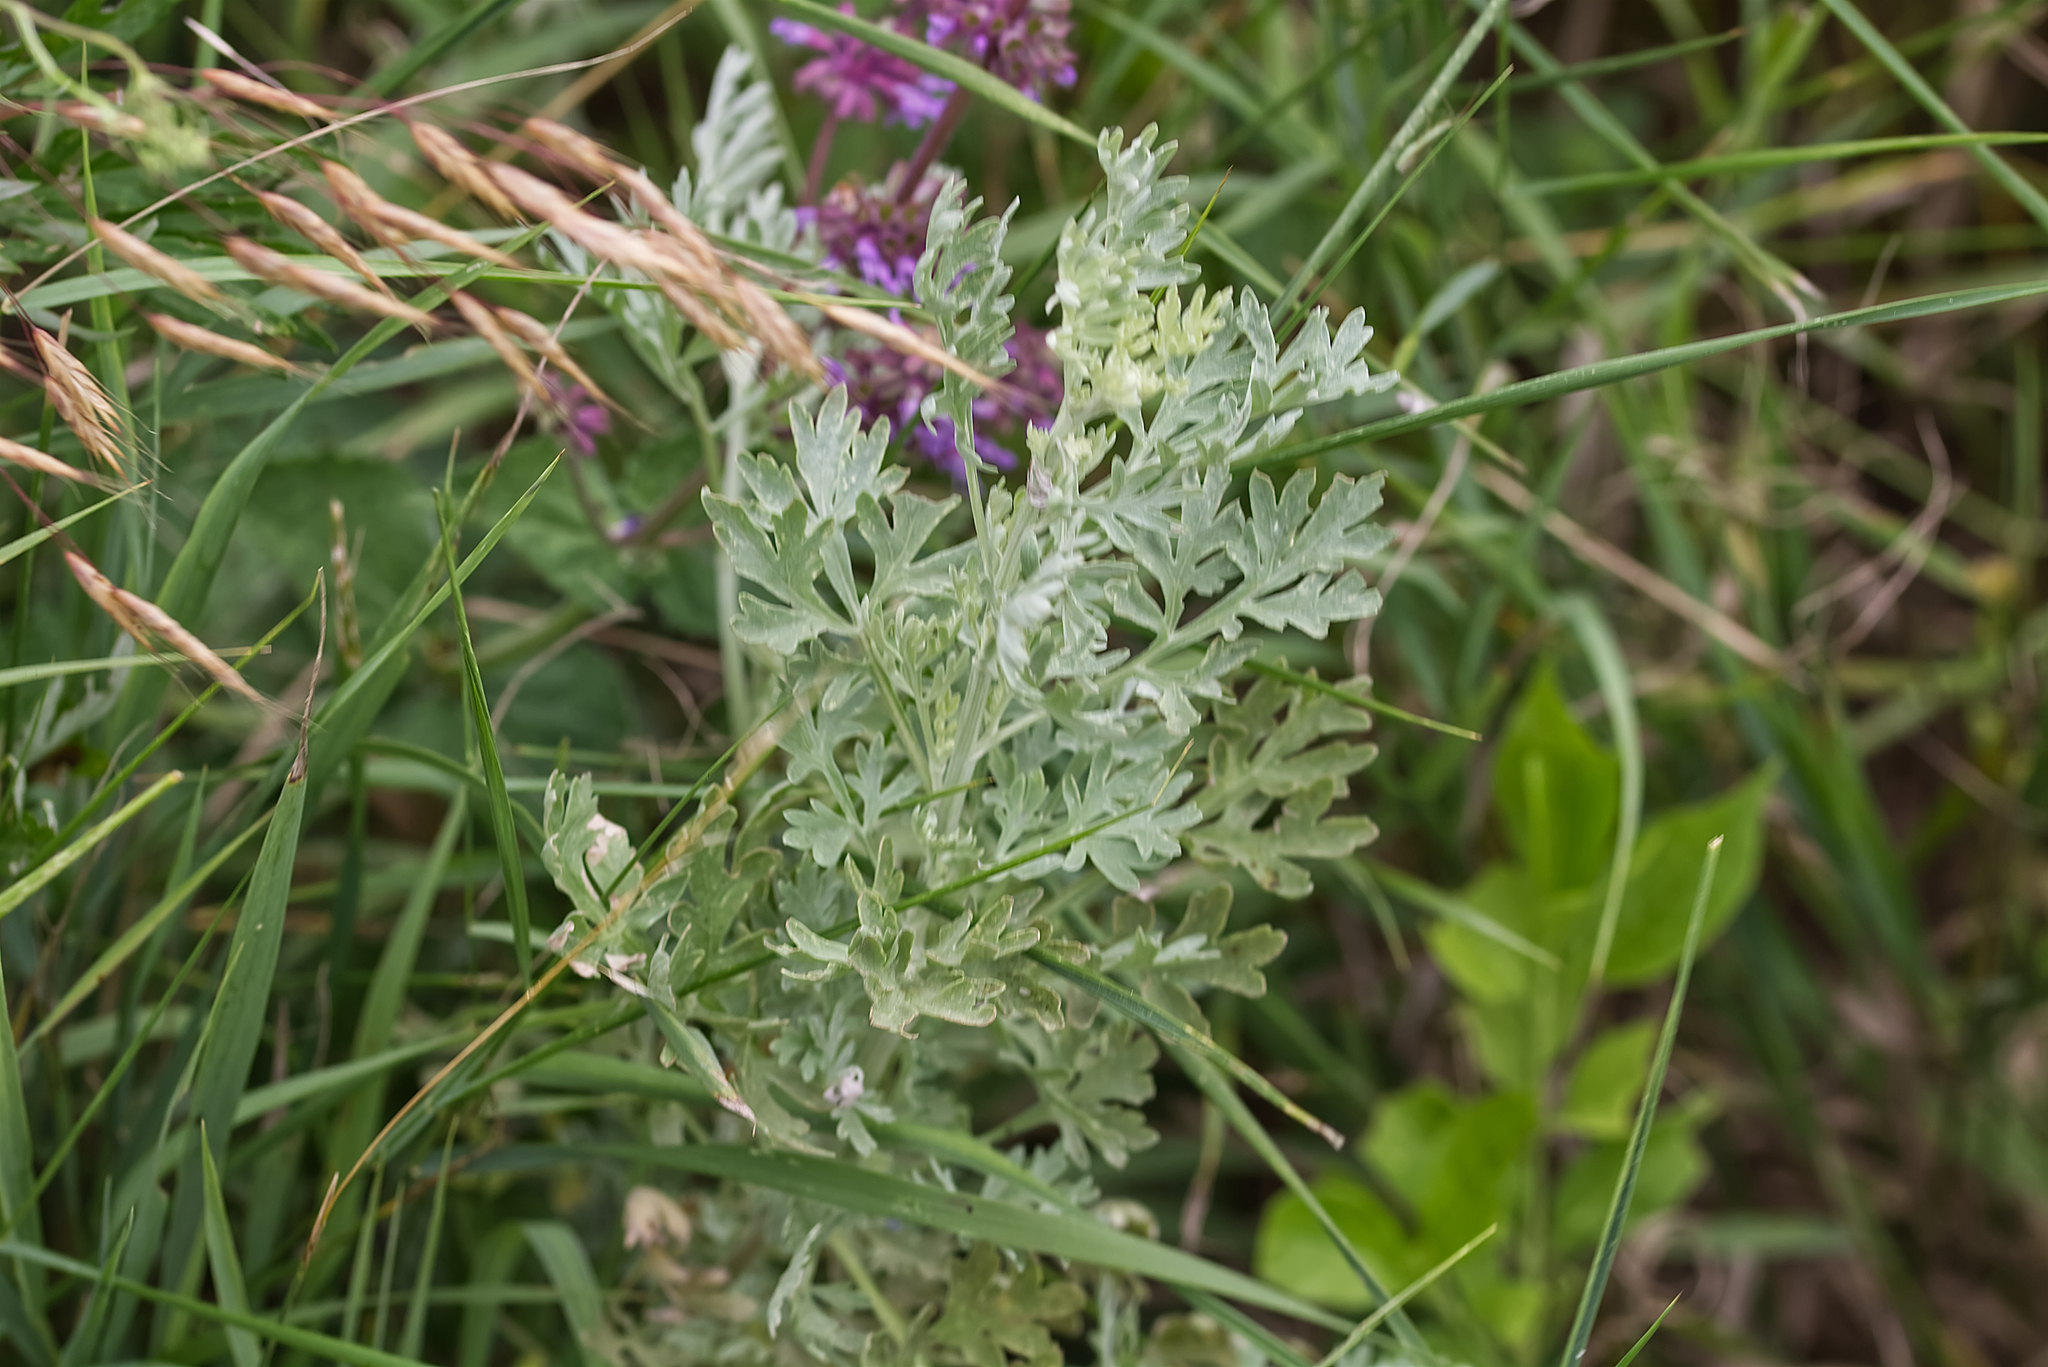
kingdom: Plantae
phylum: Tracheophyta
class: Magnoliopsida
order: Asterales
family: Asteraceae
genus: Artemisia
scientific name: Artemisia absinthium
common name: Wormwood
